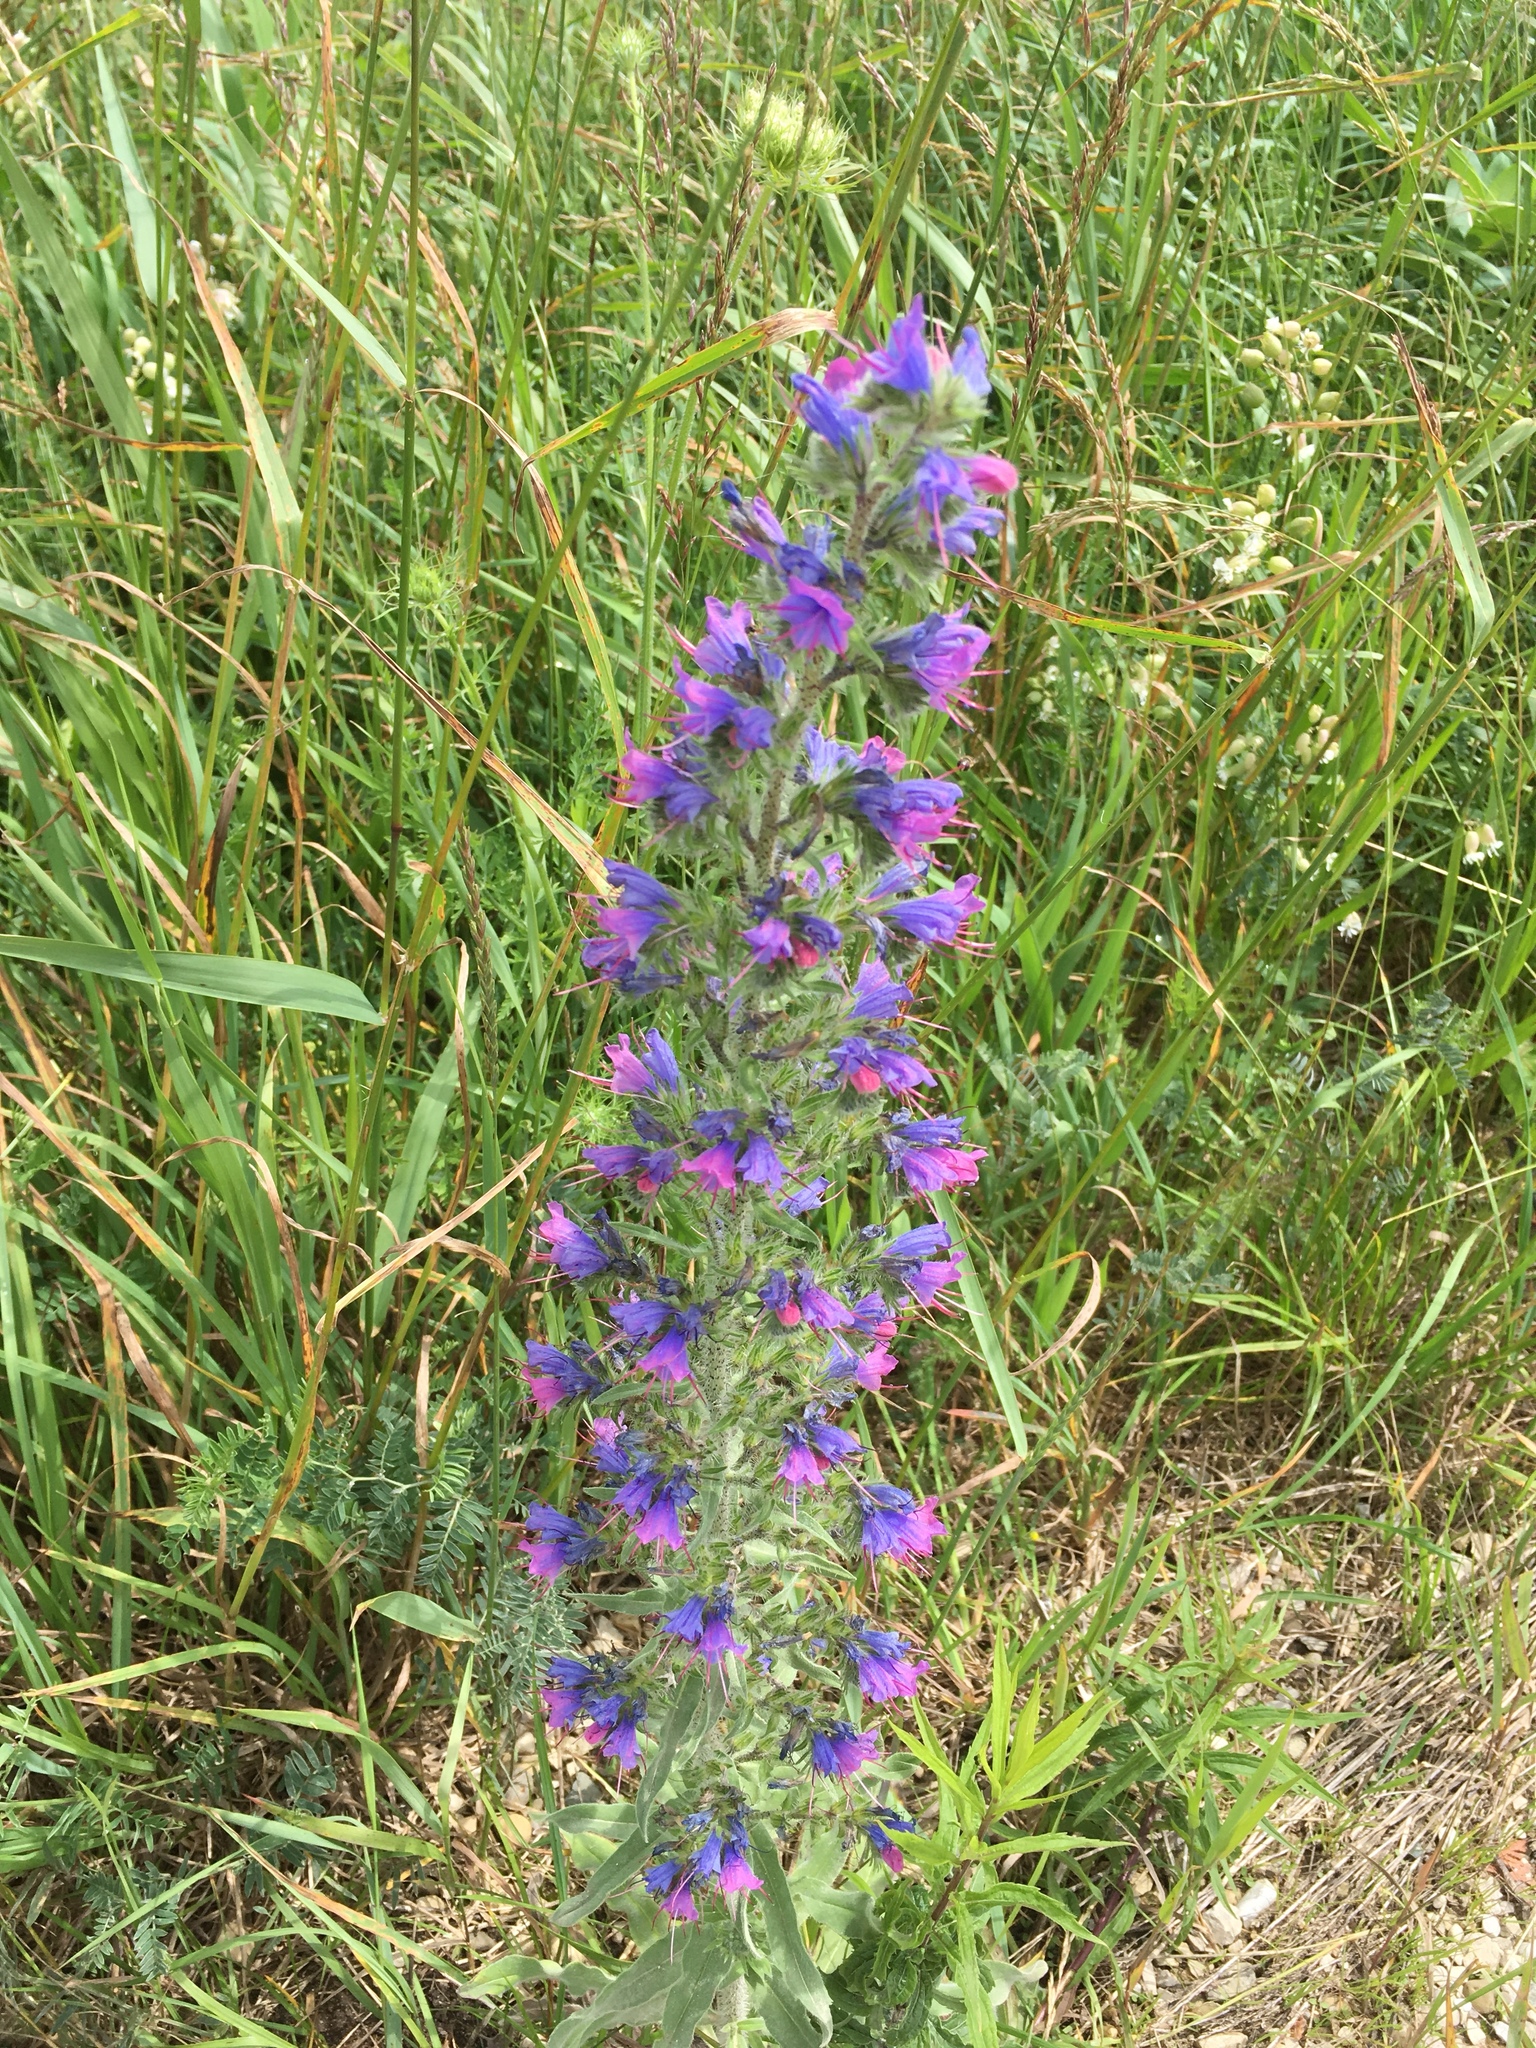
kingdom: Plantae
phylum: Tracheophyta
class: Magnoliopsida
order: Boraginales
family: Boraginaceae
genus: Echium
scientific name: Echium vulgare
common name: Common viper's bugloss
